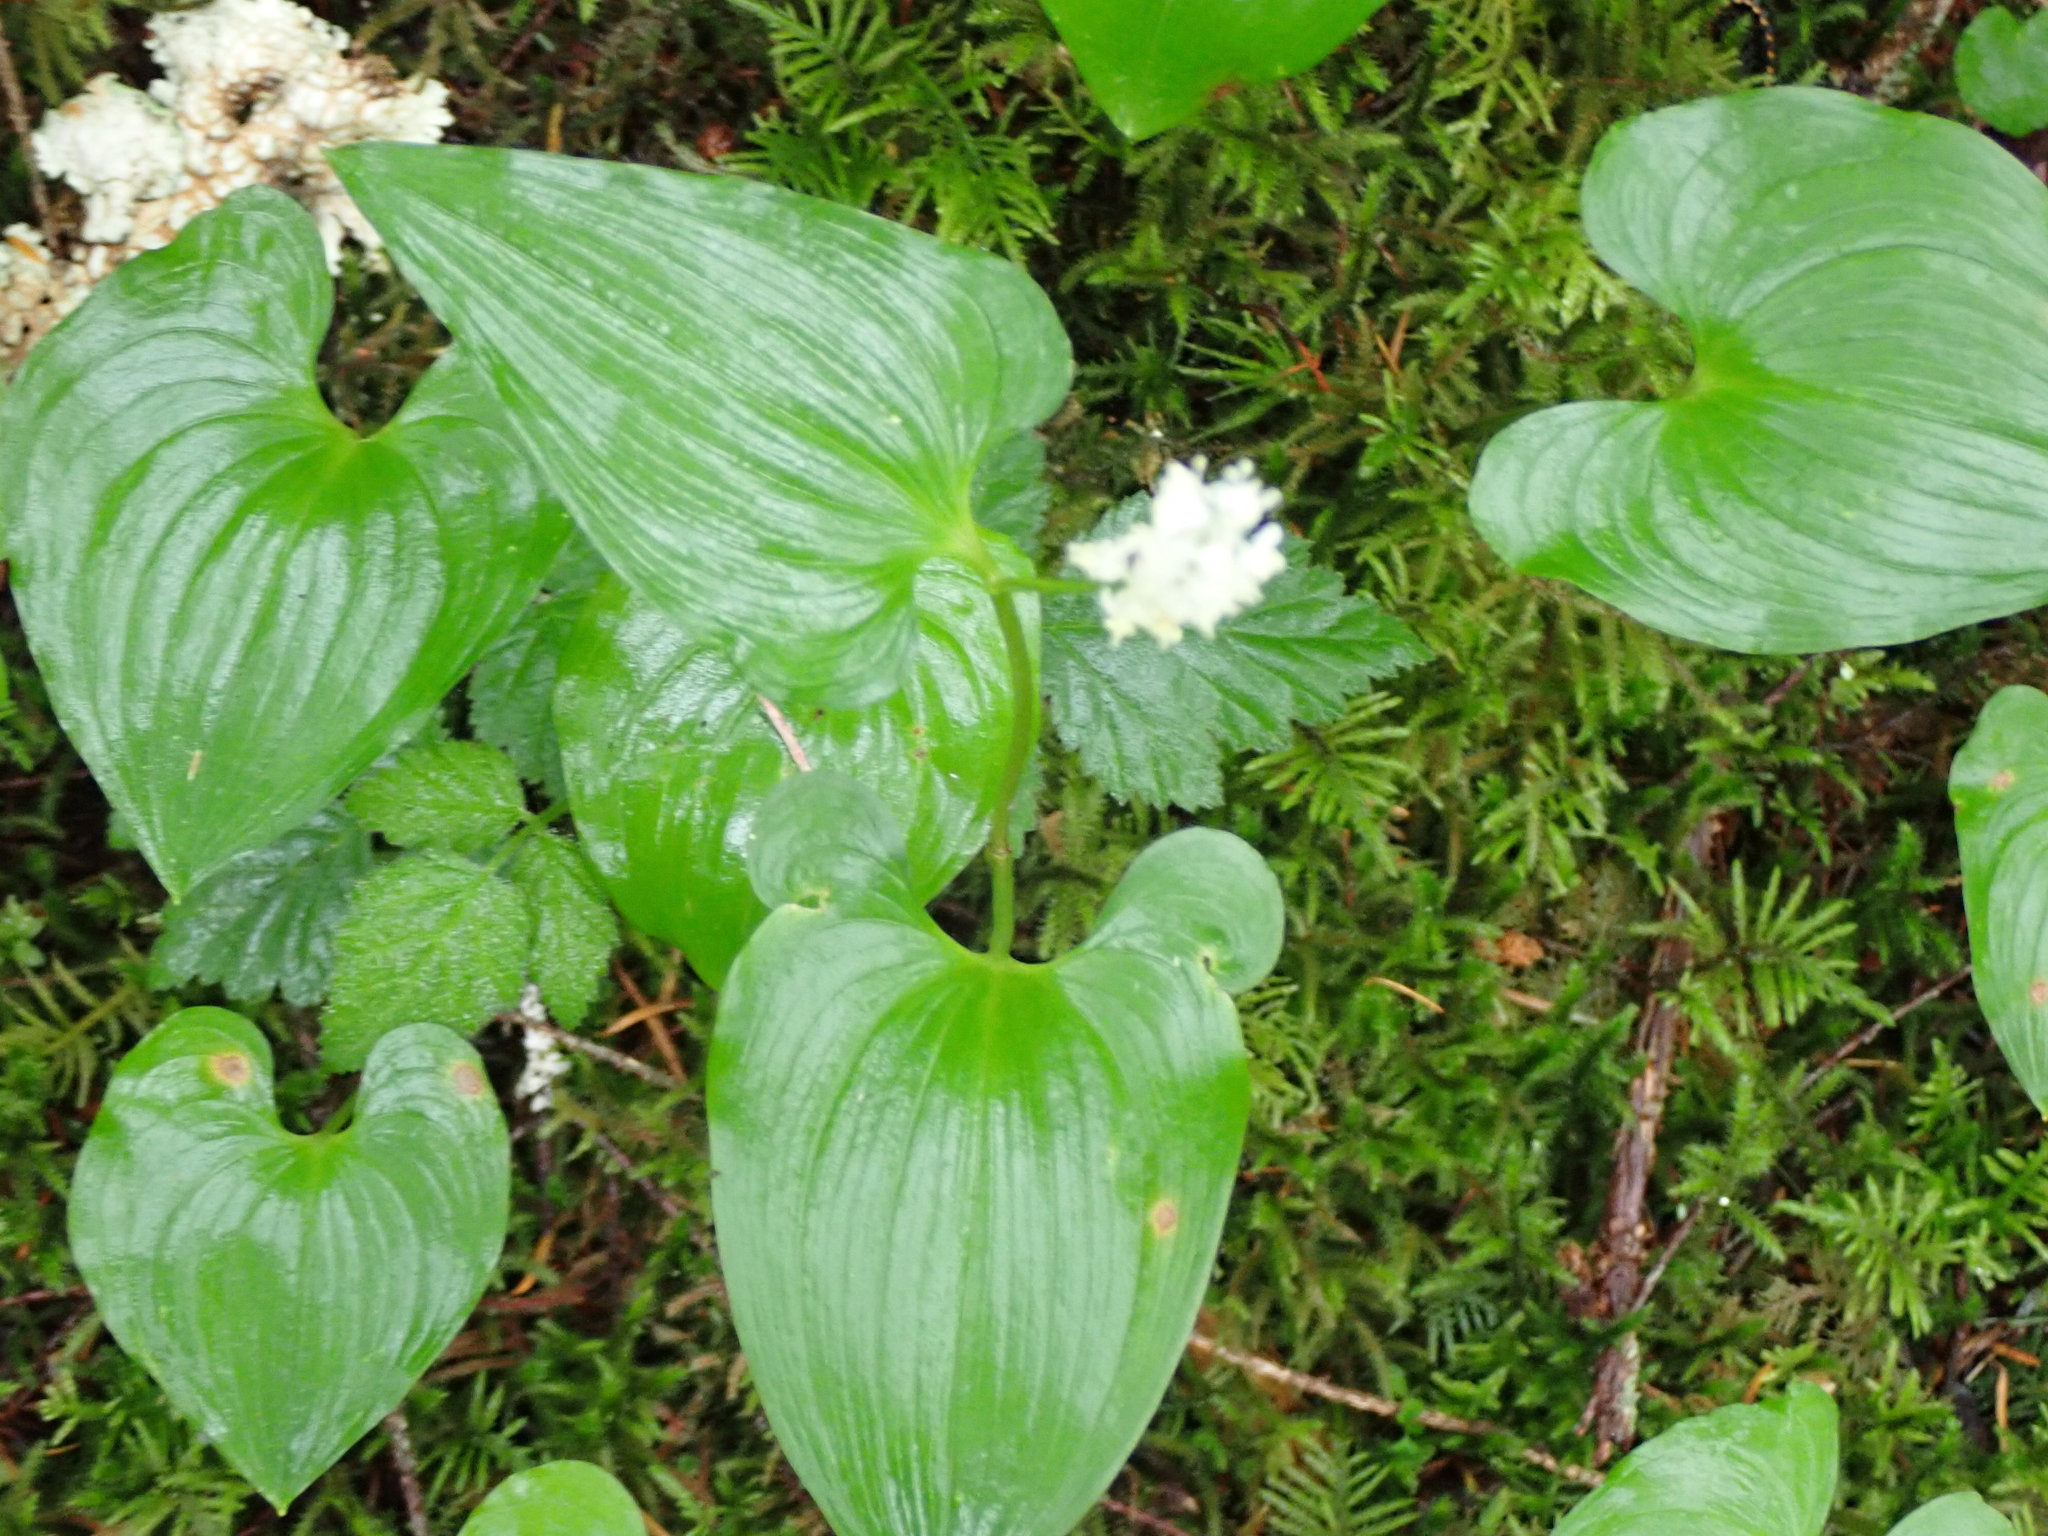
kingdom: Plantae
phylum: Tracheophyta
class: Liliopsida
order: Asparagales
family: Asparagaceae
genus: Maianthemum
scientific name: Maianthemum dilatatum
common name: False lily-of-the-valley
